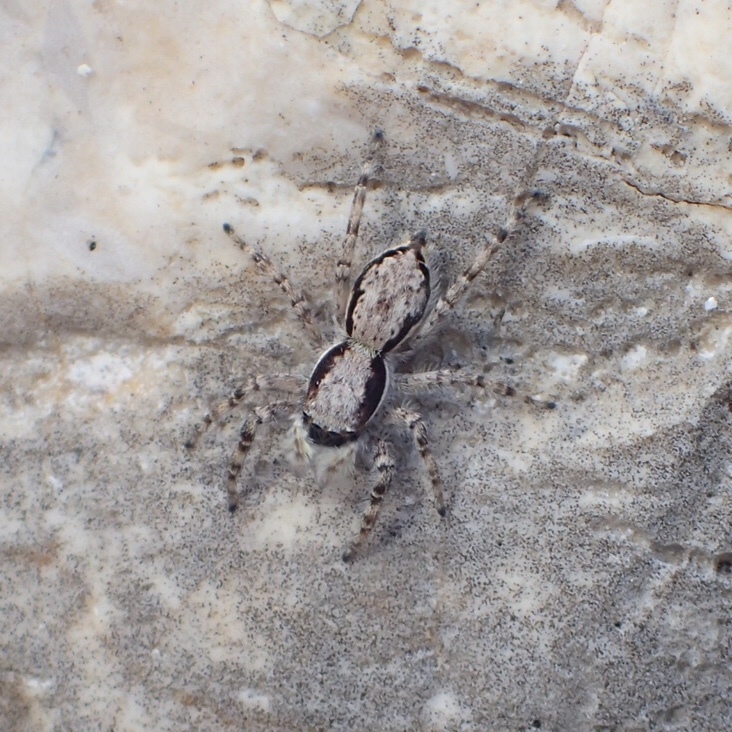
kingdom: Animalia
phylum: Arthropoda
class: Arachnida
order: Araneae
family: Salticidae
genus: Menemerus
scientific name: Menemerus bivittatus
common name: Gray wall jumper
